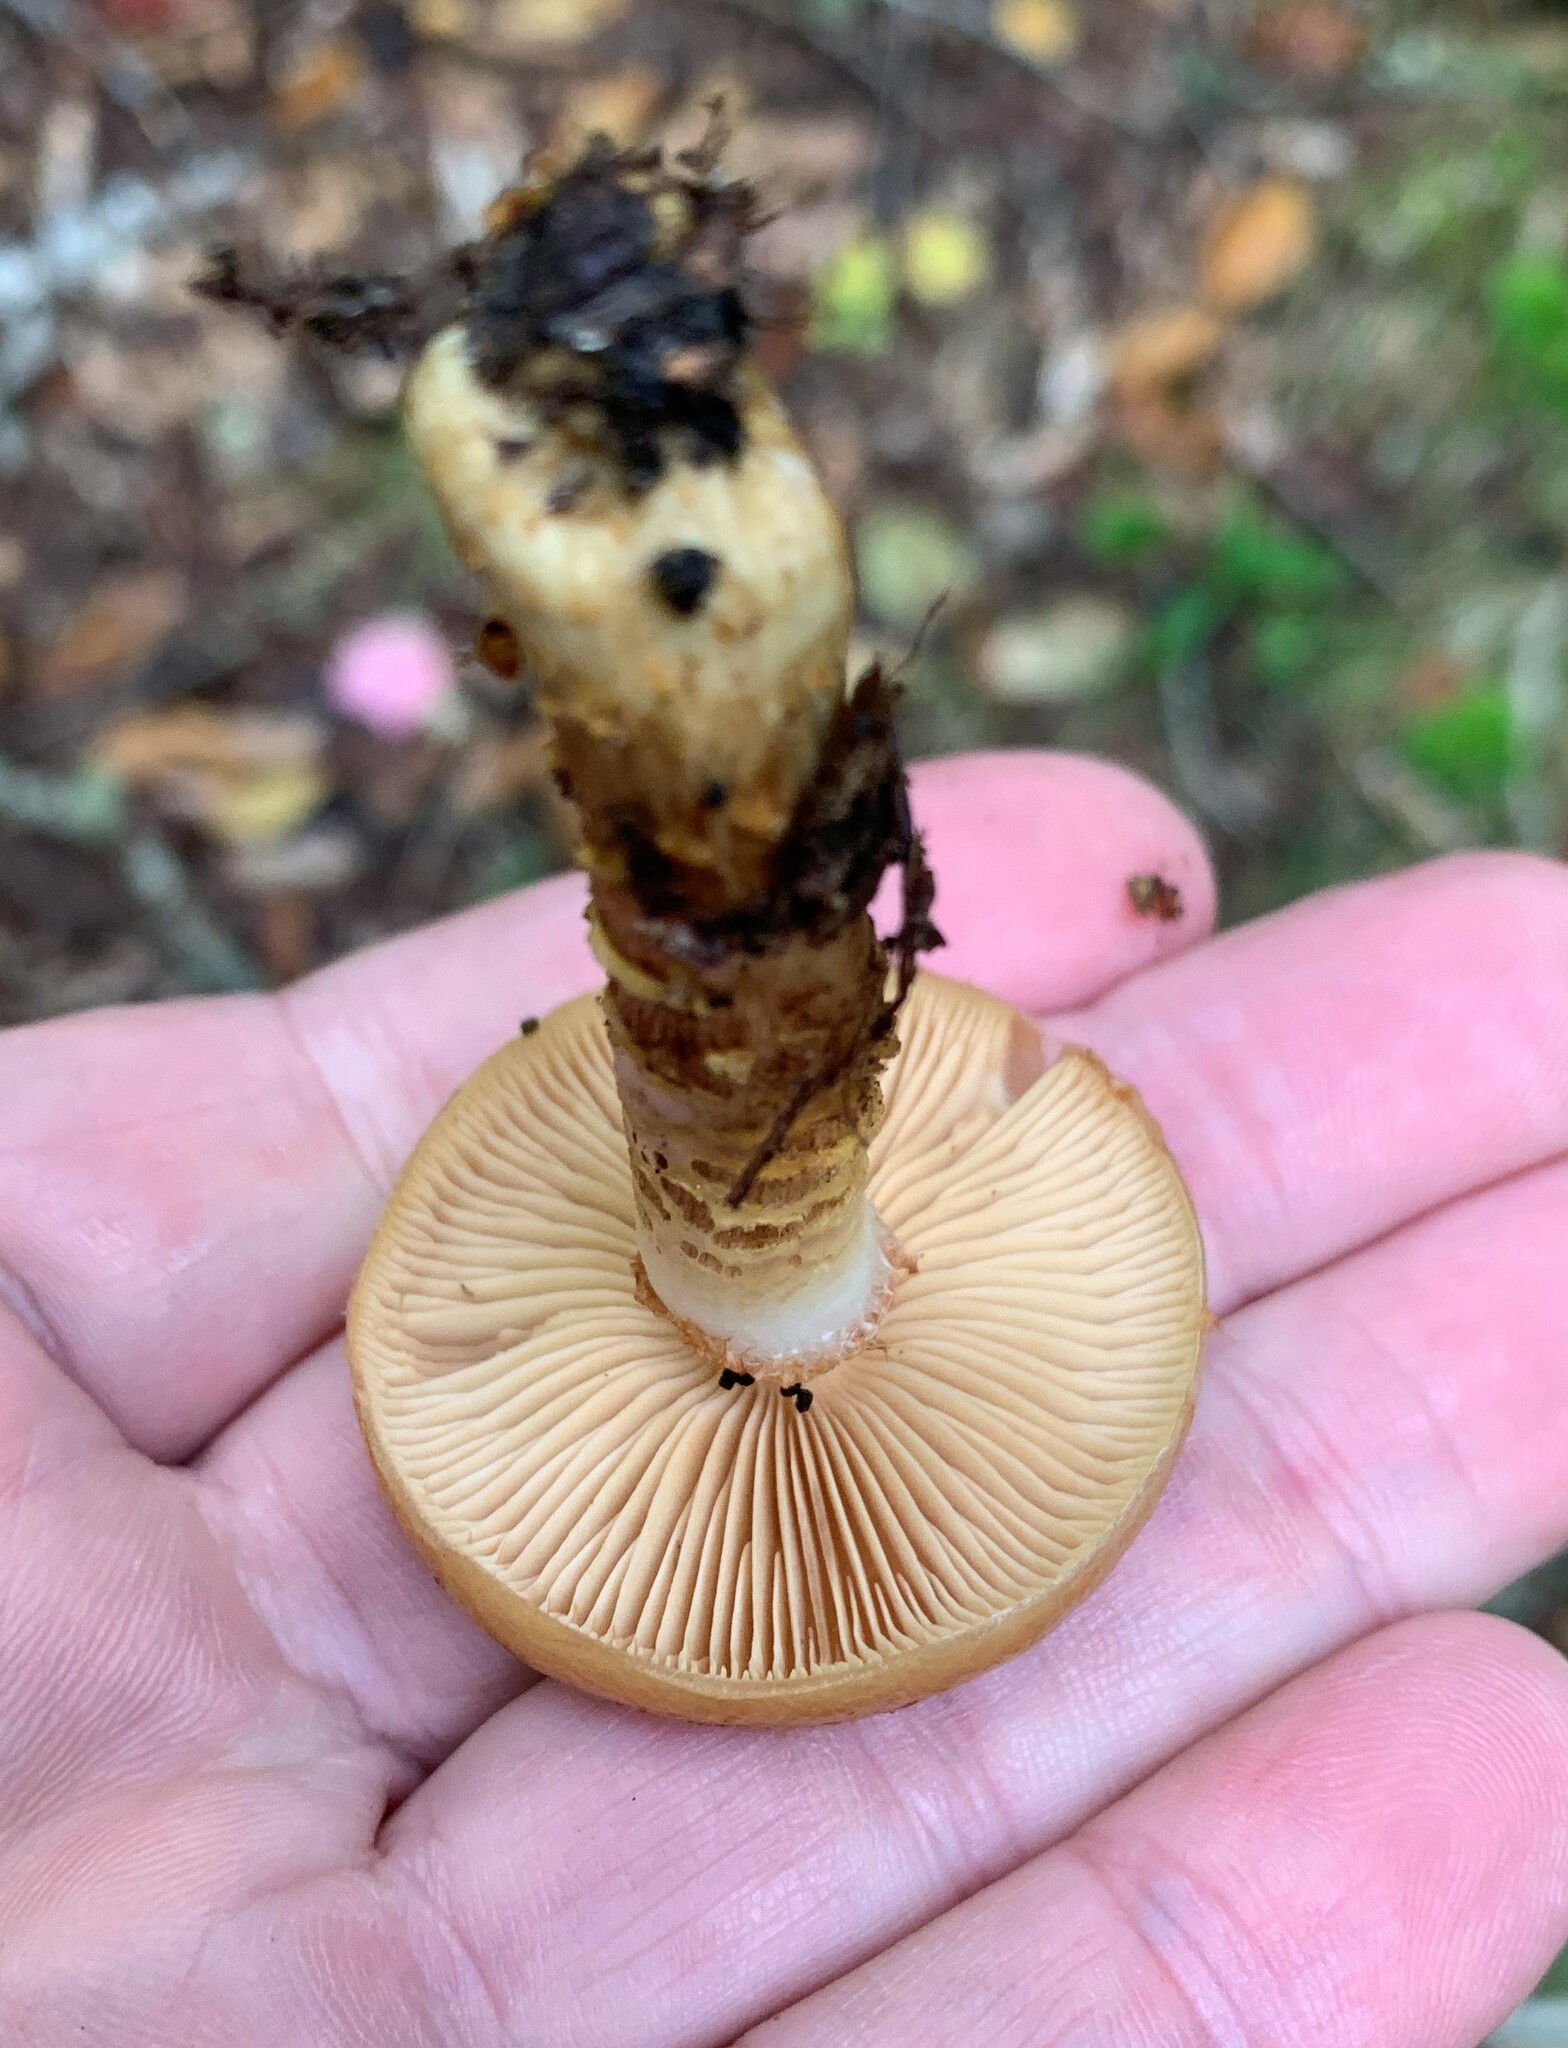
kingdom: Fungi
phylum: Basidiomycota
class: Agaricomycetes
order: Agaricales
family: Cortinariaceae
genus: Cortinarius
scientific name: Cortinarius trivialis
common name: Girdled webcap
